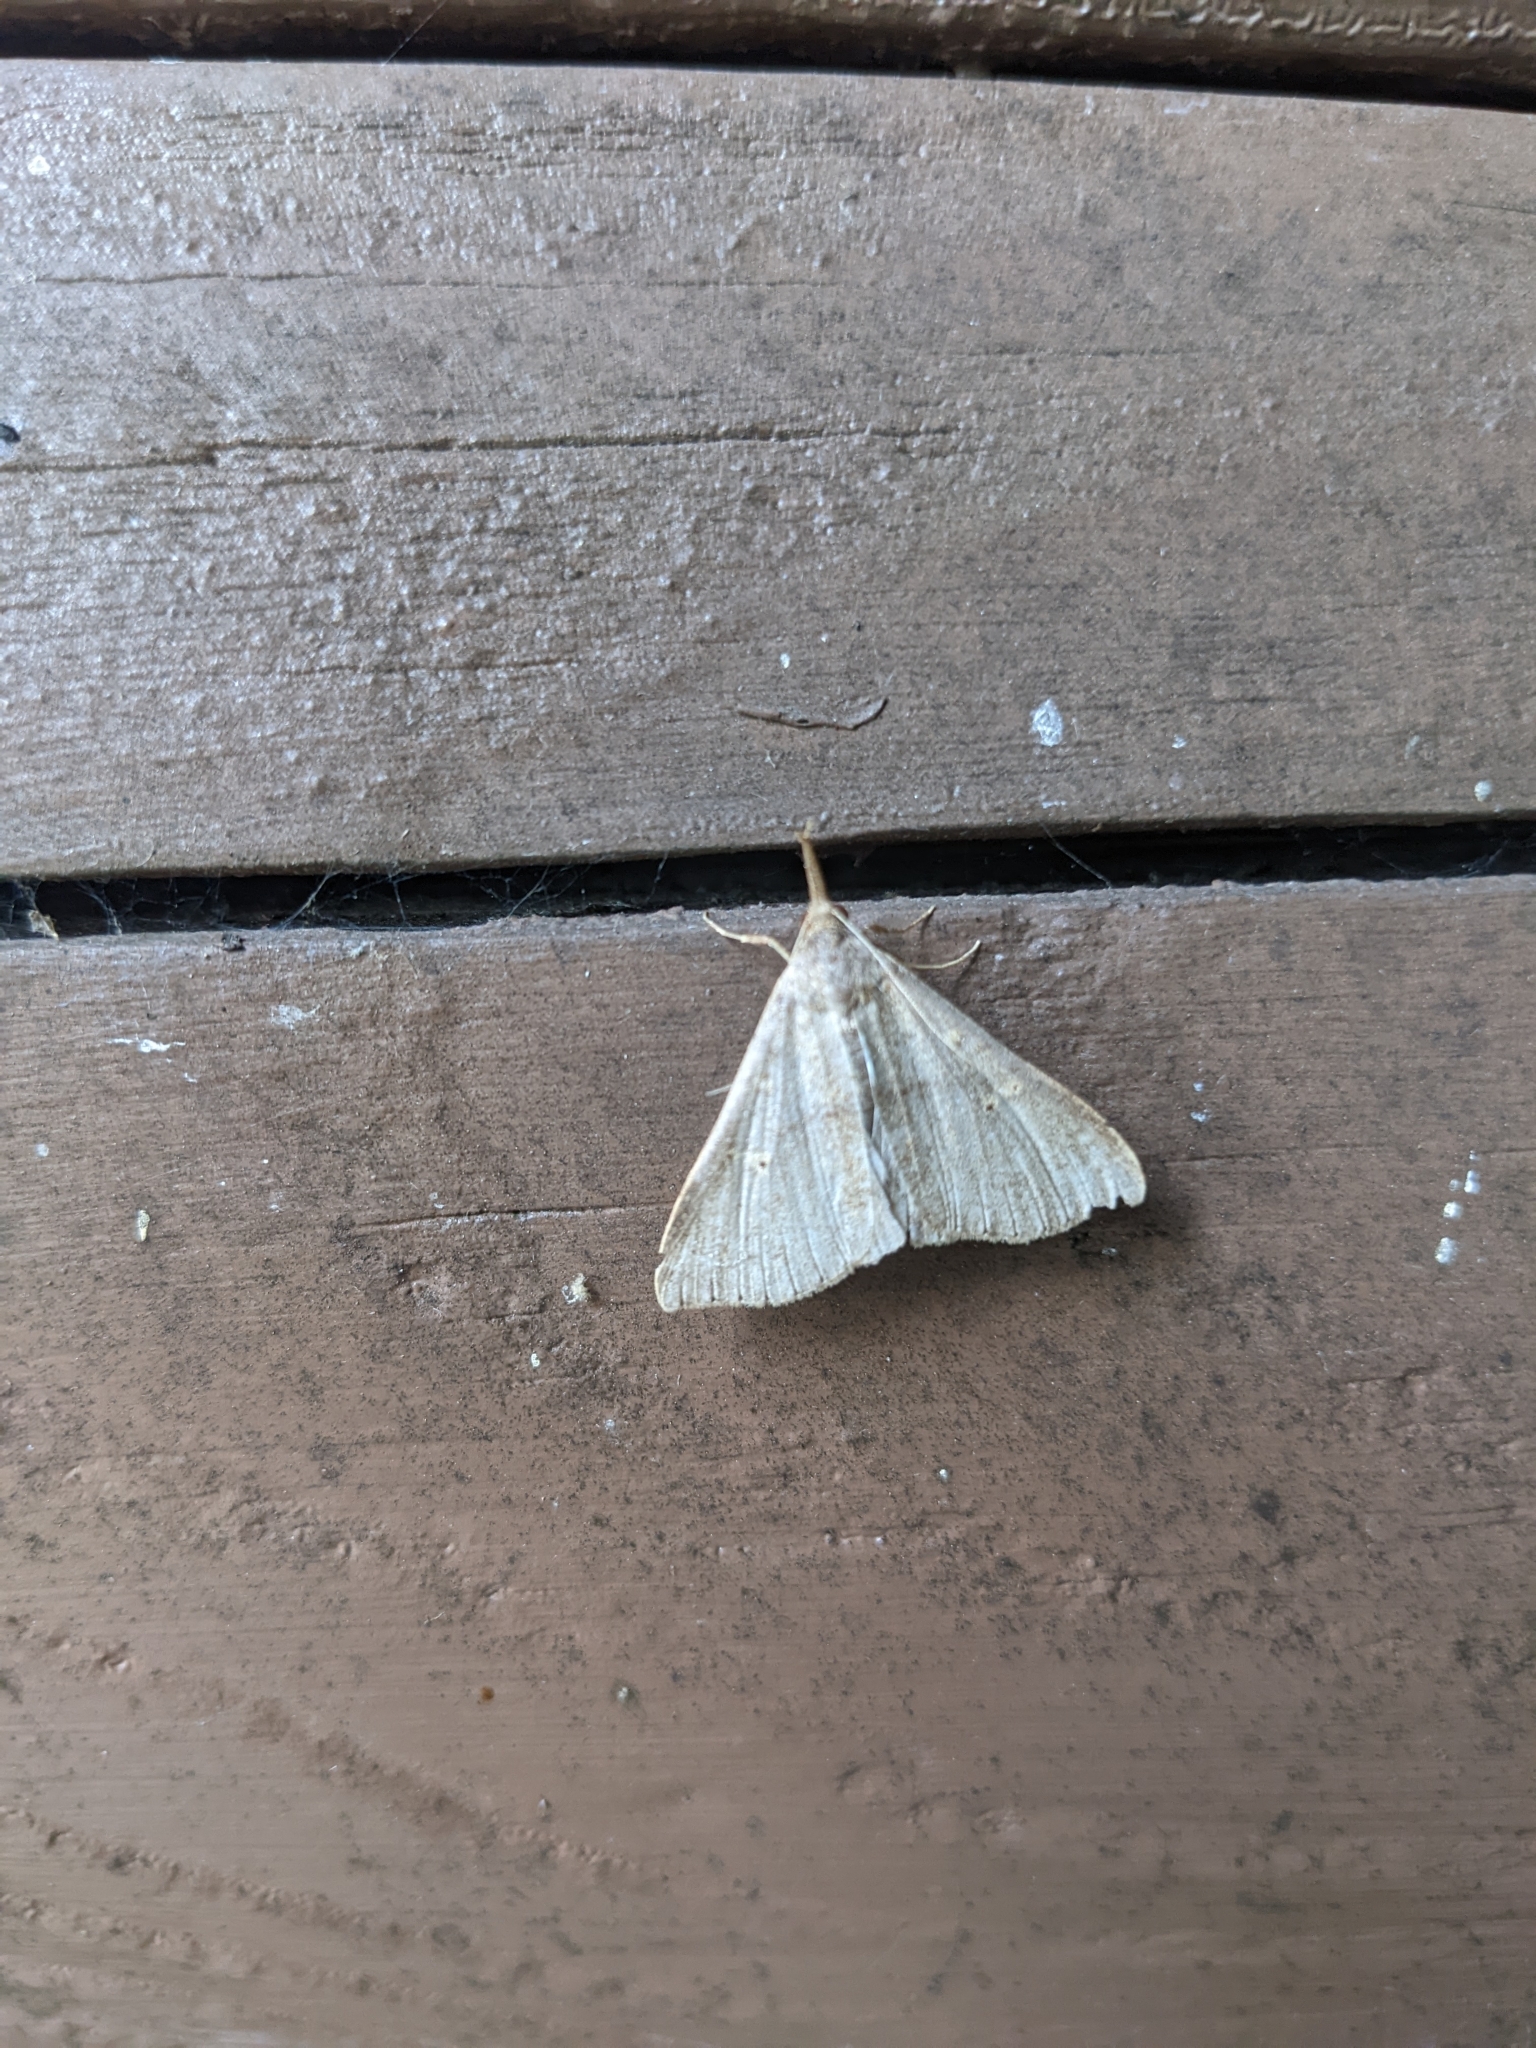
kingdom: Animalia
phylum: Arthropoda
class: Insecta
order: Lepidoptera
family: Erebidae
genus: Renia
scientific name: Renia salusalis
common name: Dotted renia moth
